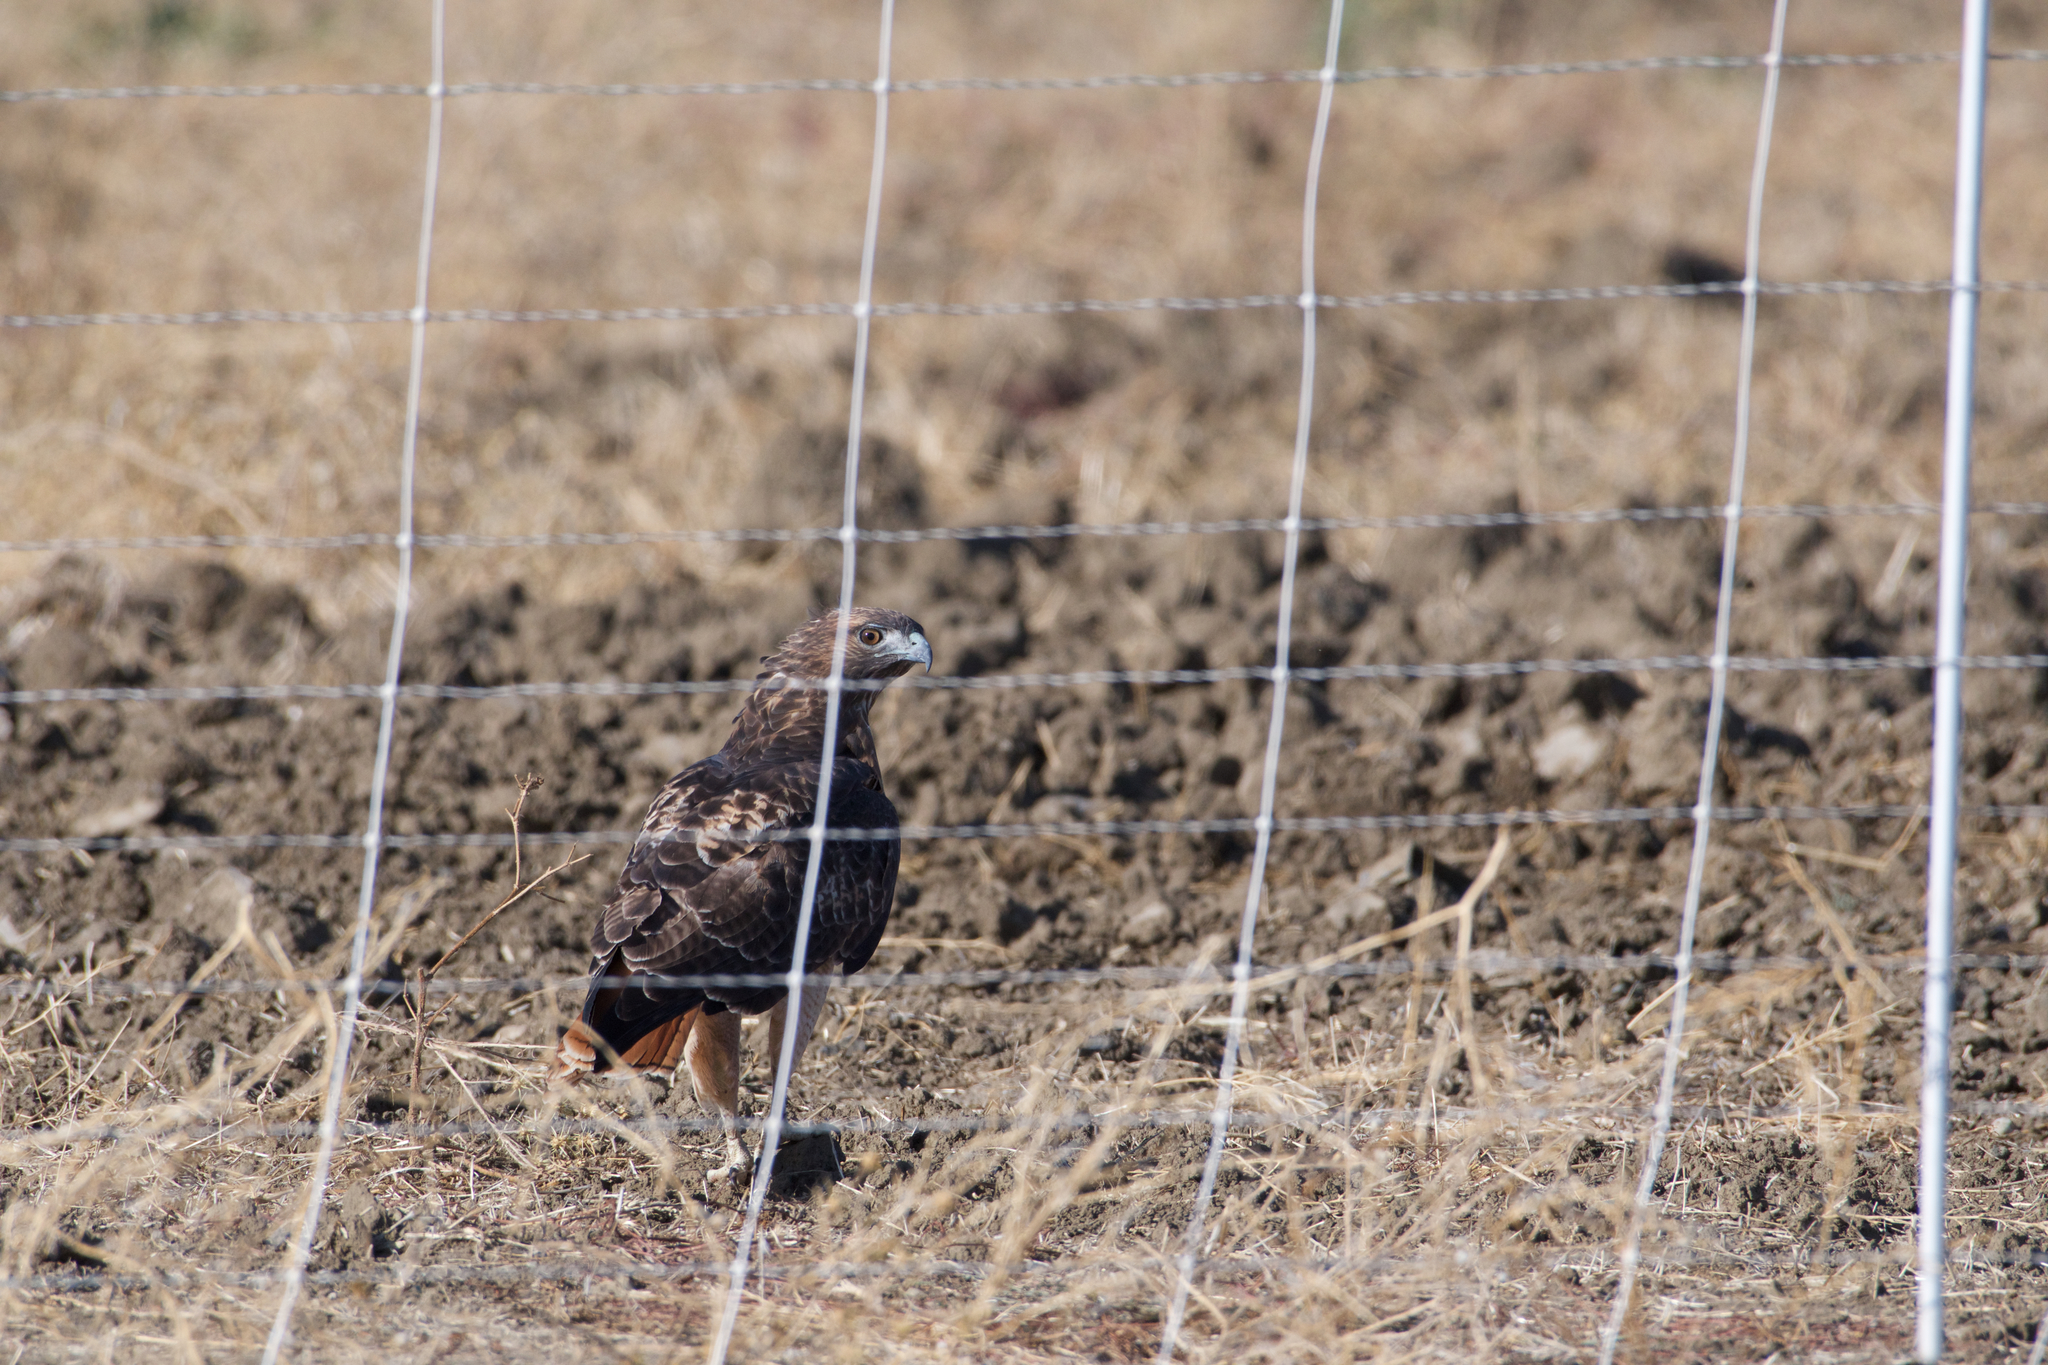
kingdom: Animalia
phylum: Chordata
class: Aves
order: Accipitriformes
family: Accipitridae
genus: Buteo
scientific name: Buteo jamaicensis
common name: Red-tailed hawk
